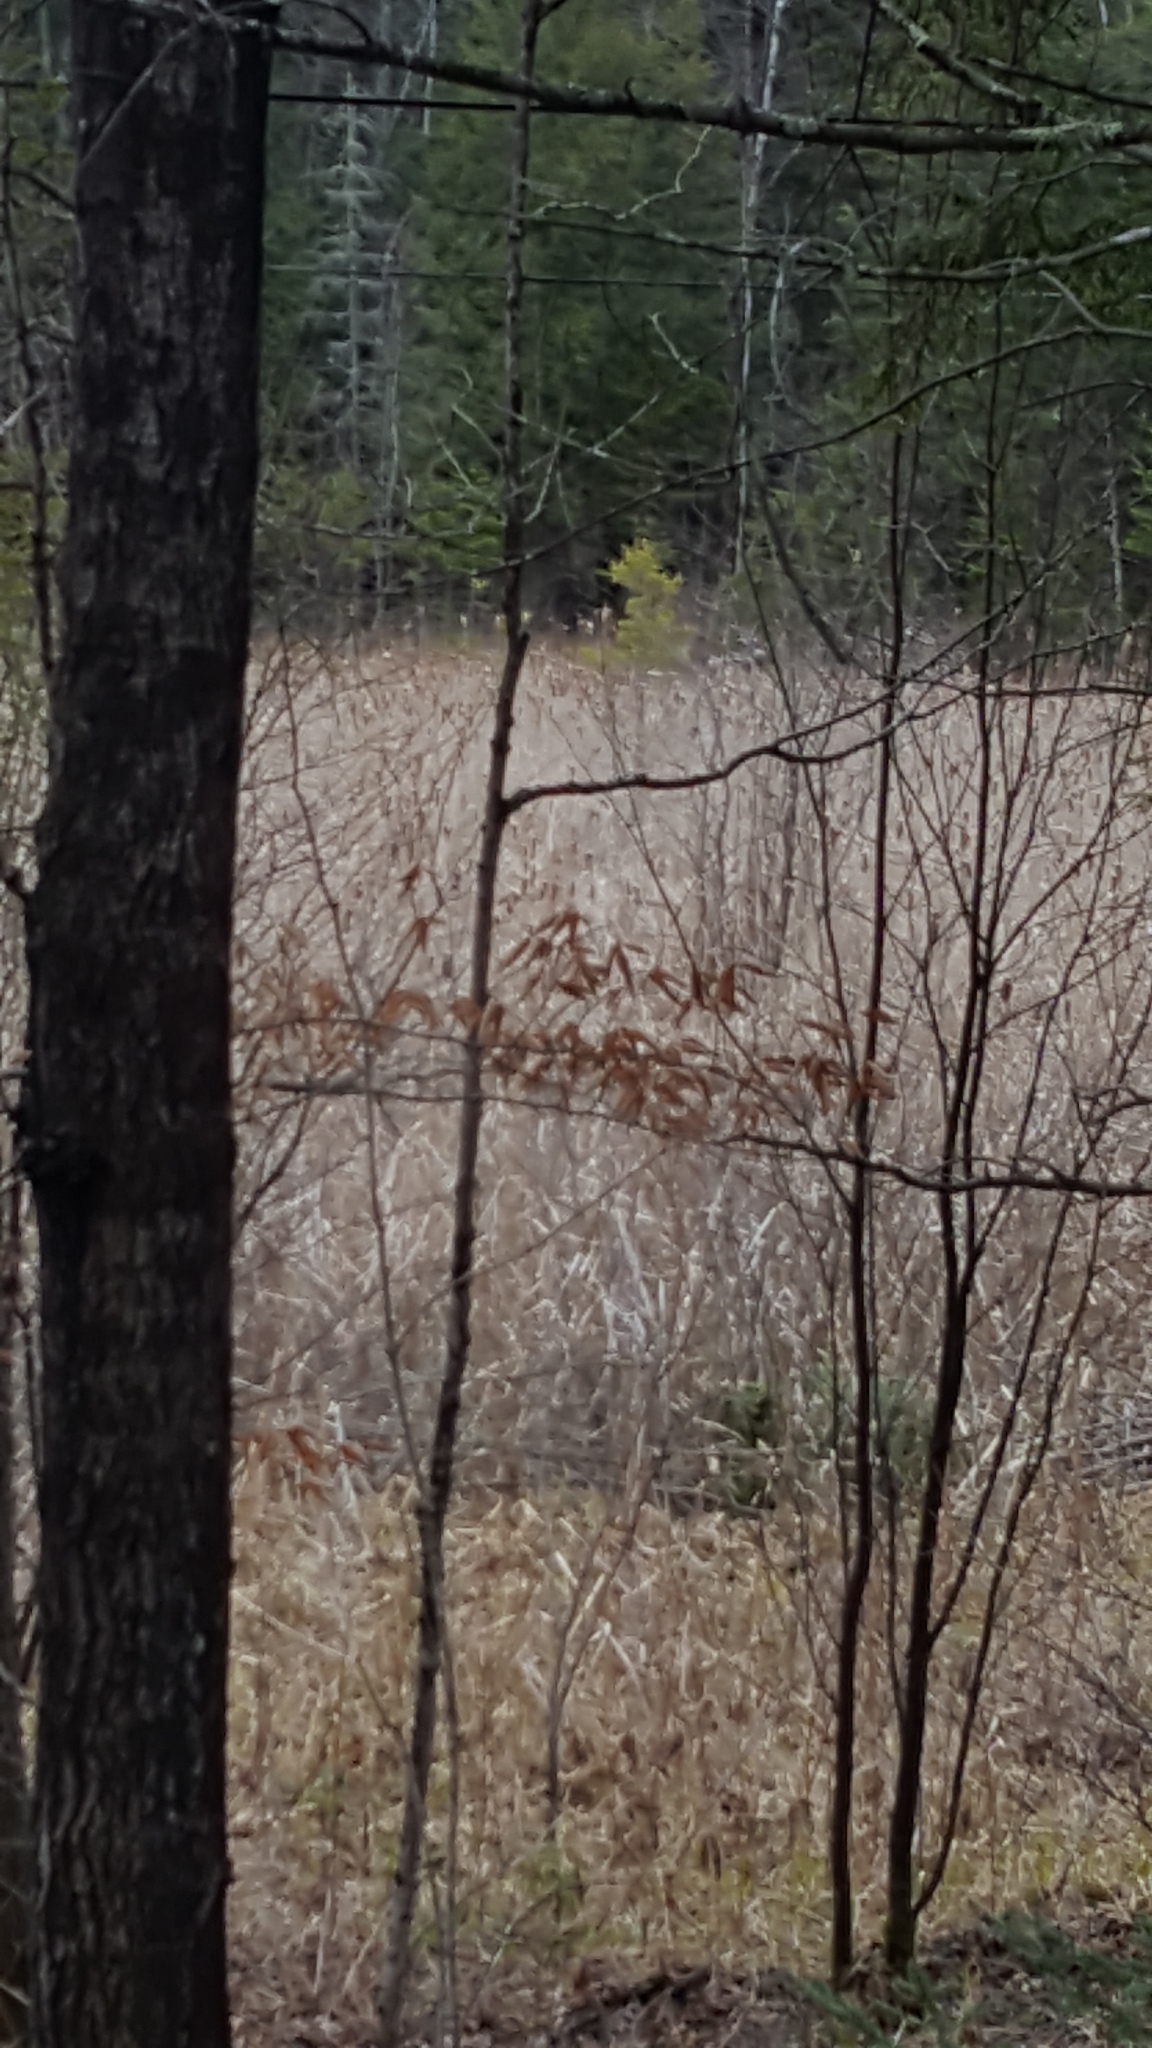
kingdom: Plantae
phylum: Tracheophyta
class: Liliopsida
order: Poales
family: Typhaceae
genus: Typha
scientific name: Typha
